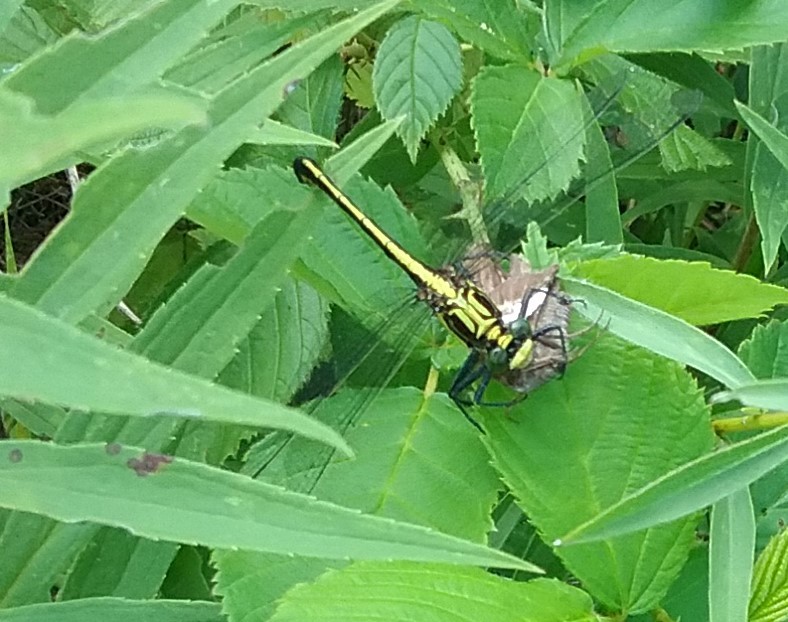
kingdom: Animalia
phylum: Arthropoda
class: Insecta
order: Odonata
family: Gomphidae
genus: Dromogomphus
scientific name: Dromogomphus spinosus
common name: Black-shouldered spinyleg
